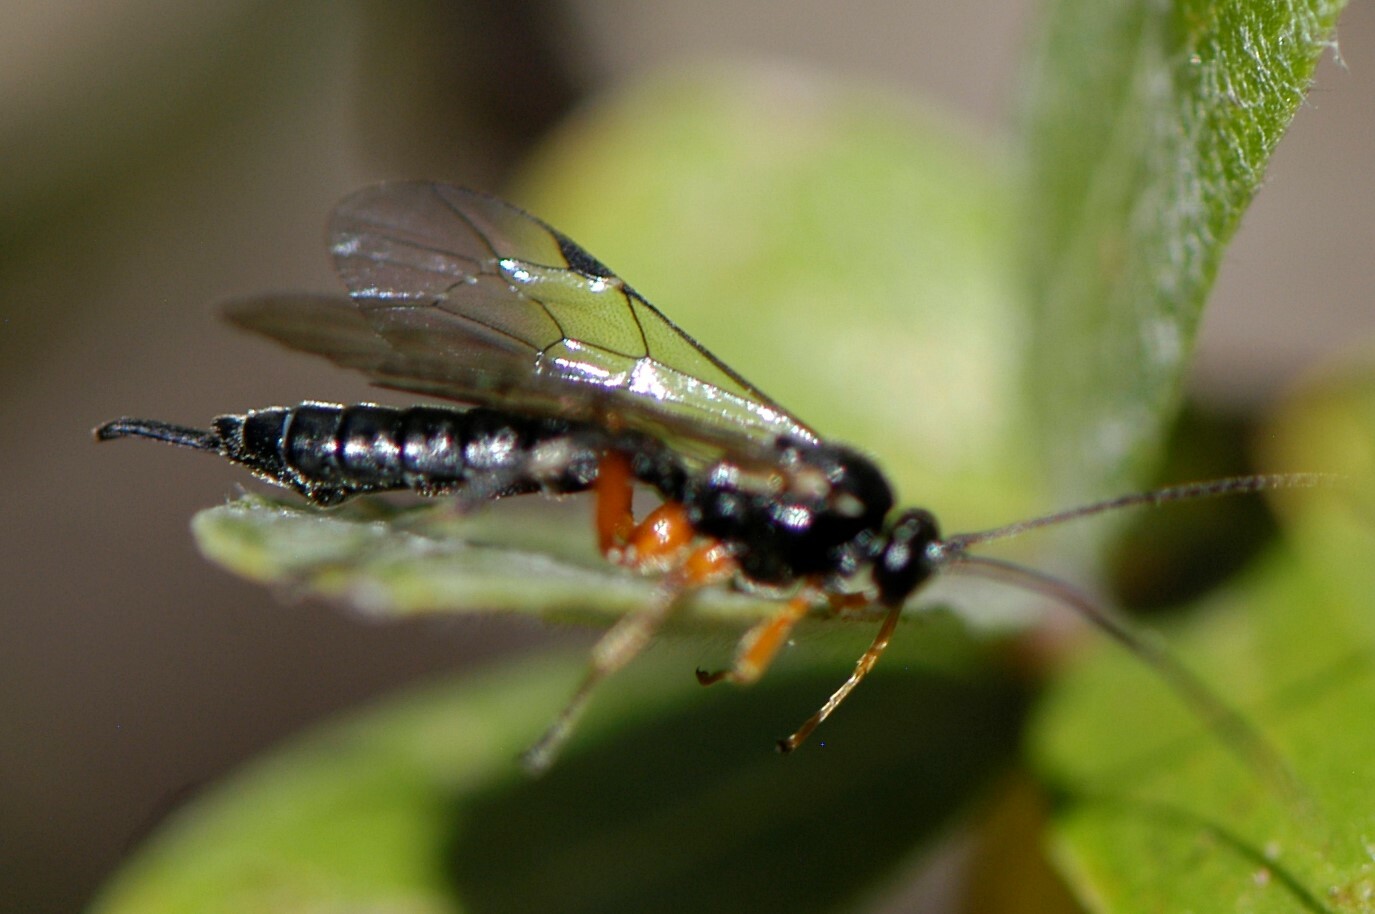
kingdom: Animalia
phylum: Arthropoda
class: Insecta
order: Hymenoptera
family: Ichneumonidae
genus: Apechthis
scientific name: Apechthis
